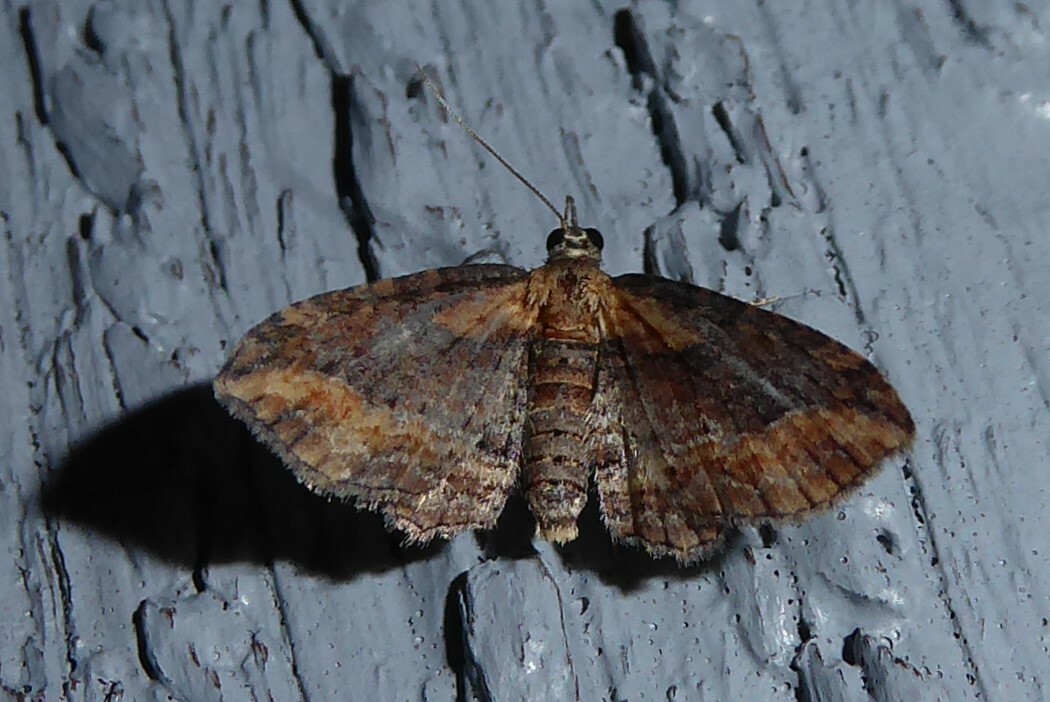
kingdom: Animalia
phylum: Arthropoda
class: Insecta
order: Lepidoptera
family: Geometridae
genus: Chloroclystis
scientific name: Chloroclystis filata
